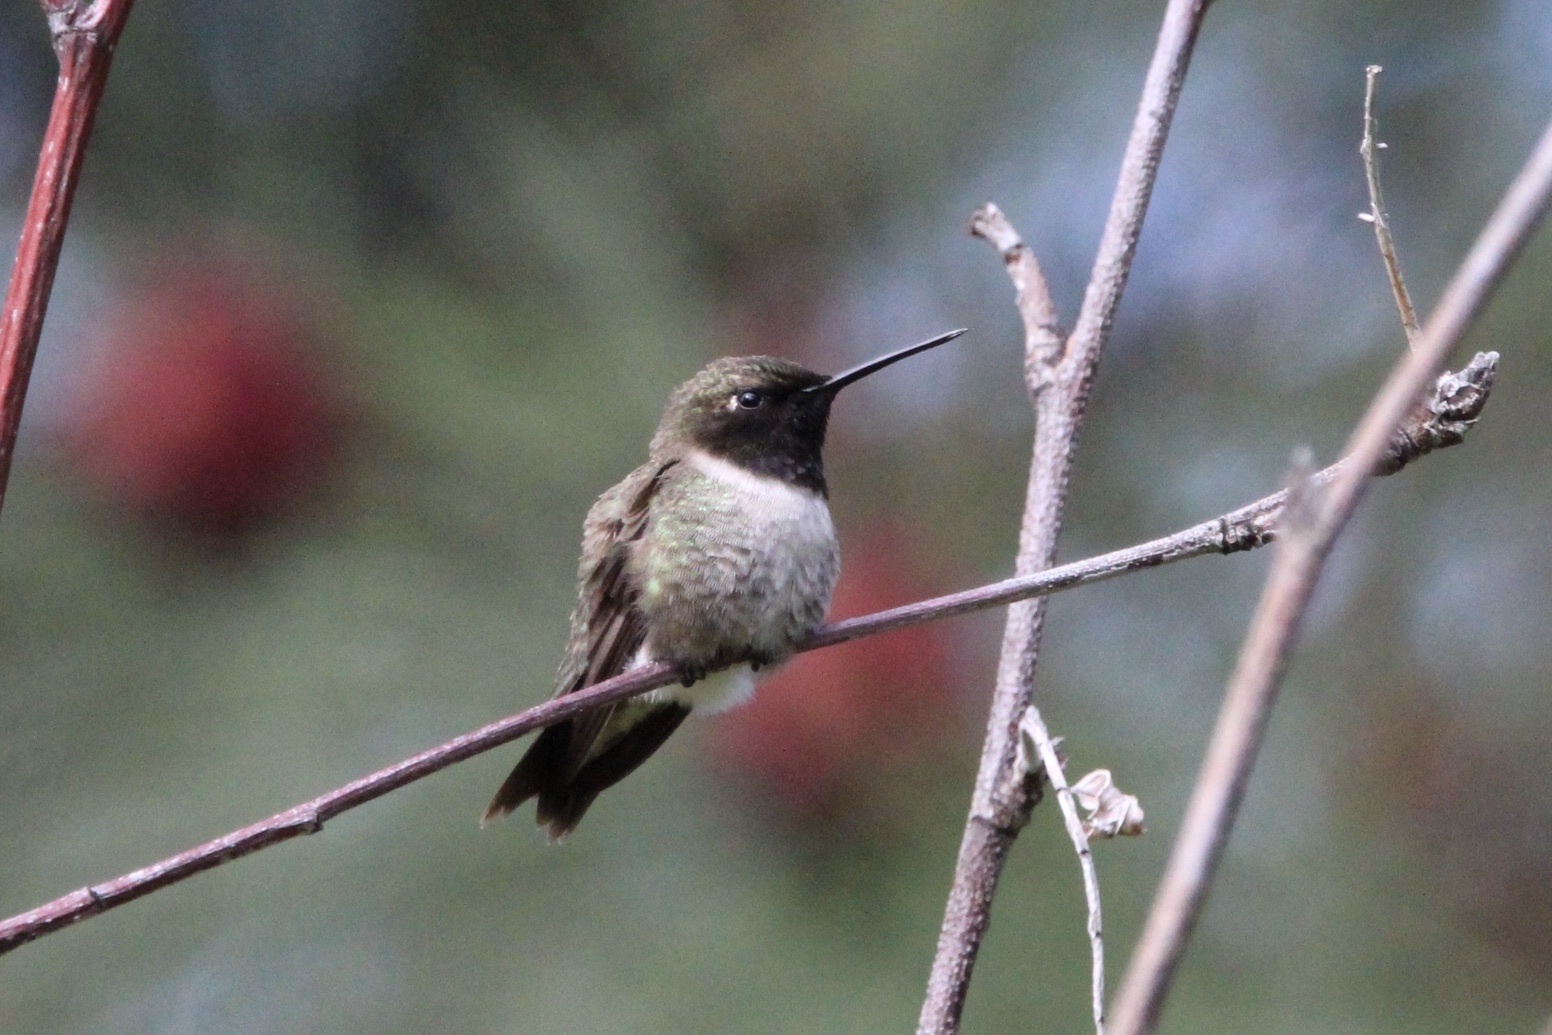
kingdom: Animalia
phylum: Chordata
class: Aves
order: Apodiformes
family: Trochilidae
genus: Archilochus
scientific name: Archilochus alexandri
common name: Black-chinned hummingbird
